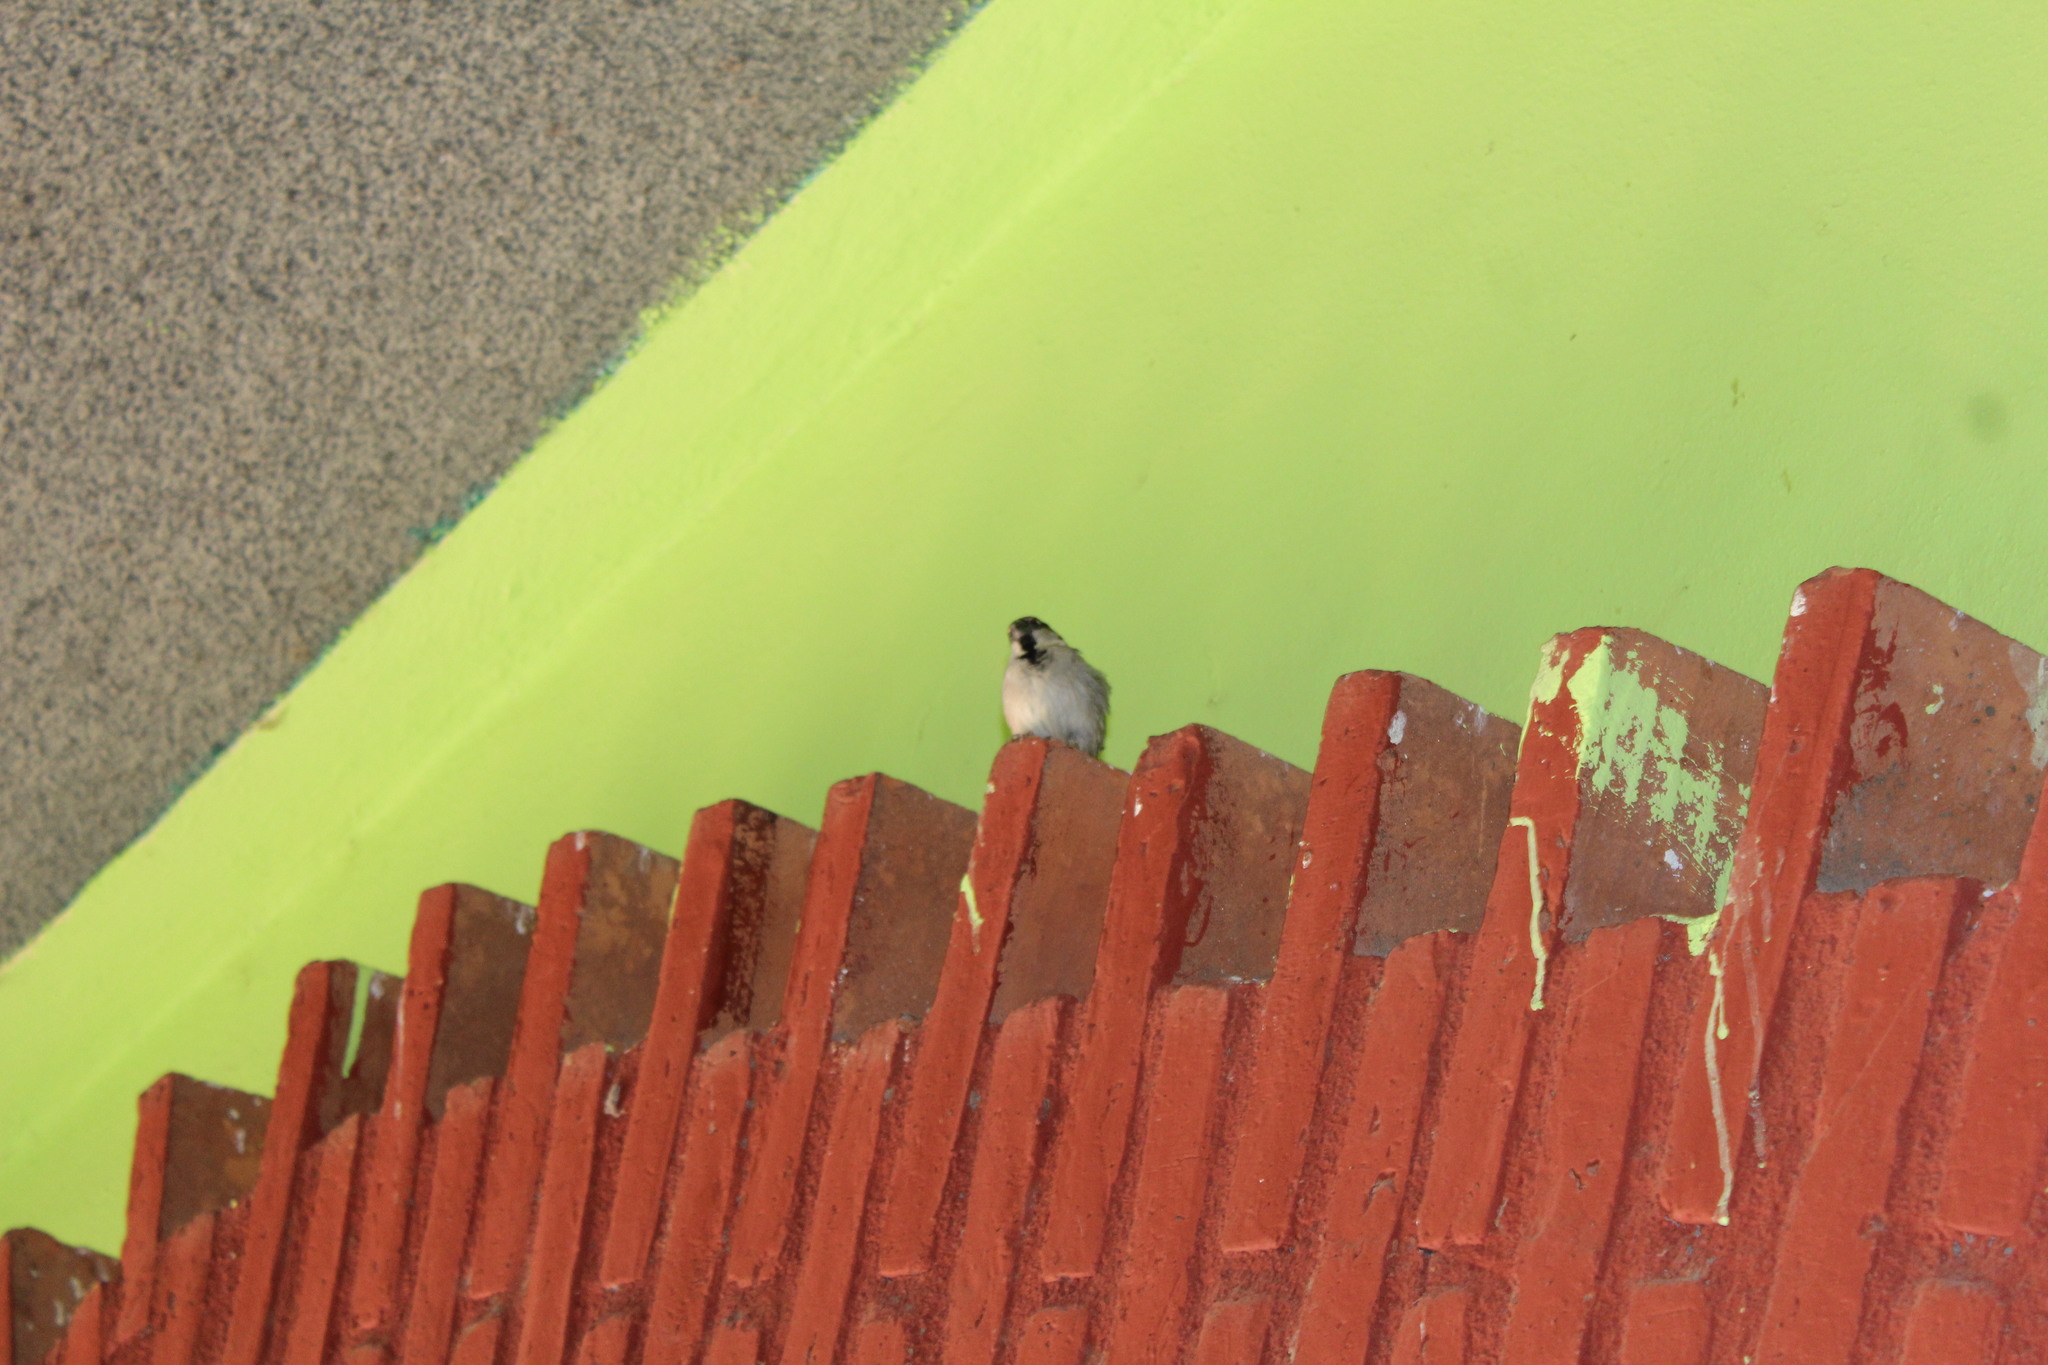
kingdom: Animalia
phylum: Chordata
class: Aves
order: Passeriformes
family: Passeridae
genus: Passer
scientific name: Passer domesticus
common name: House sparrow
